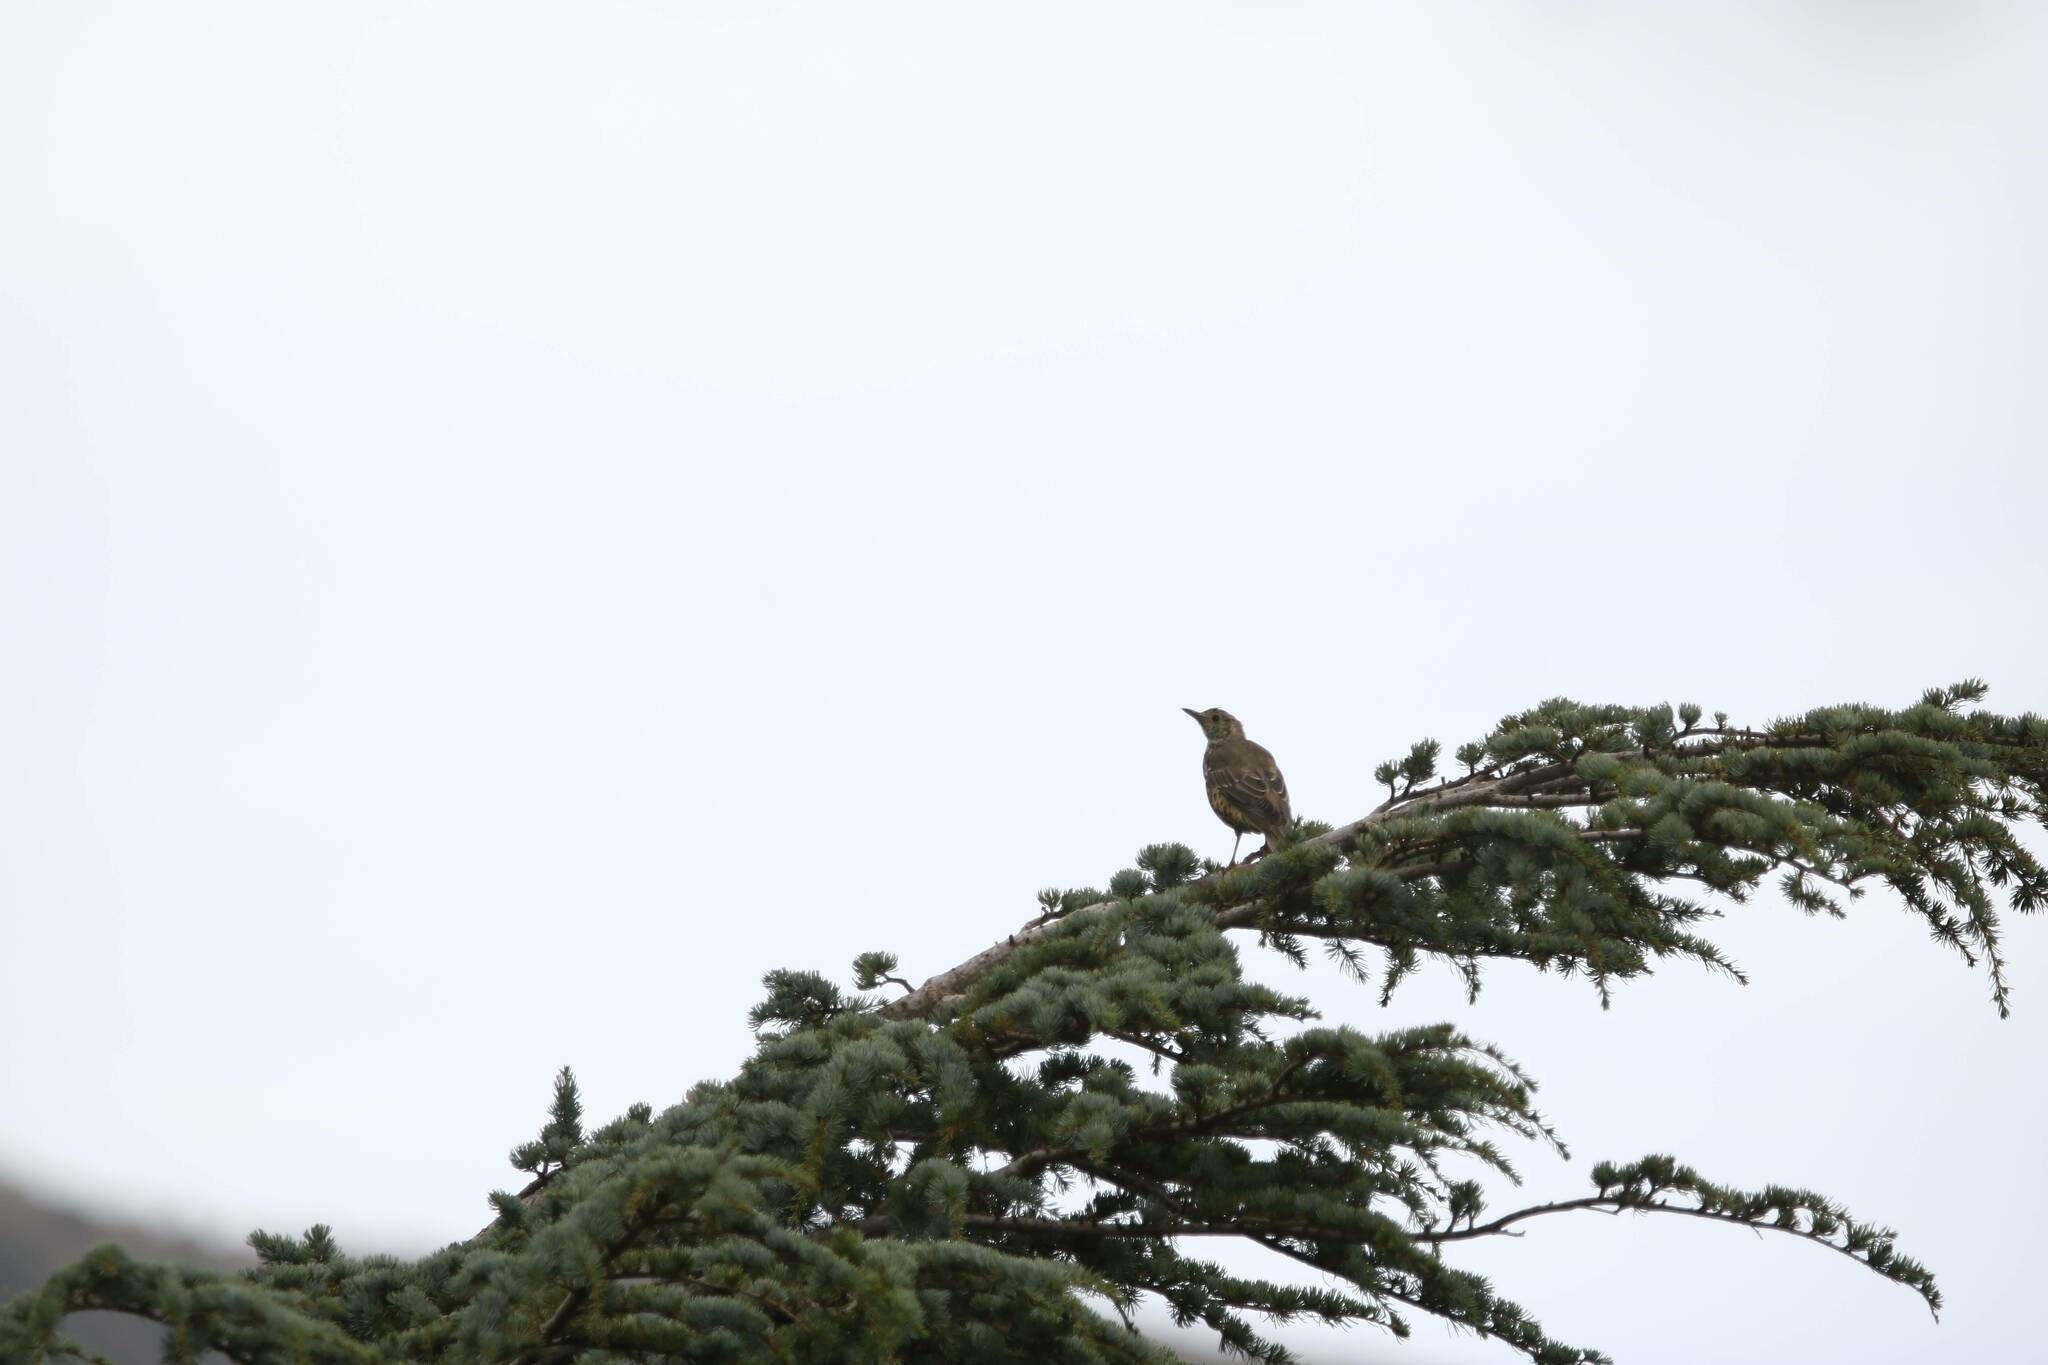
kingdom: Animalia
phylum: Chordata
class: Aves
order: Passeriformes
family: Turdidae
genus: Turdus
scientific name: Turdus viscivorus
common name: Mistle thrush
